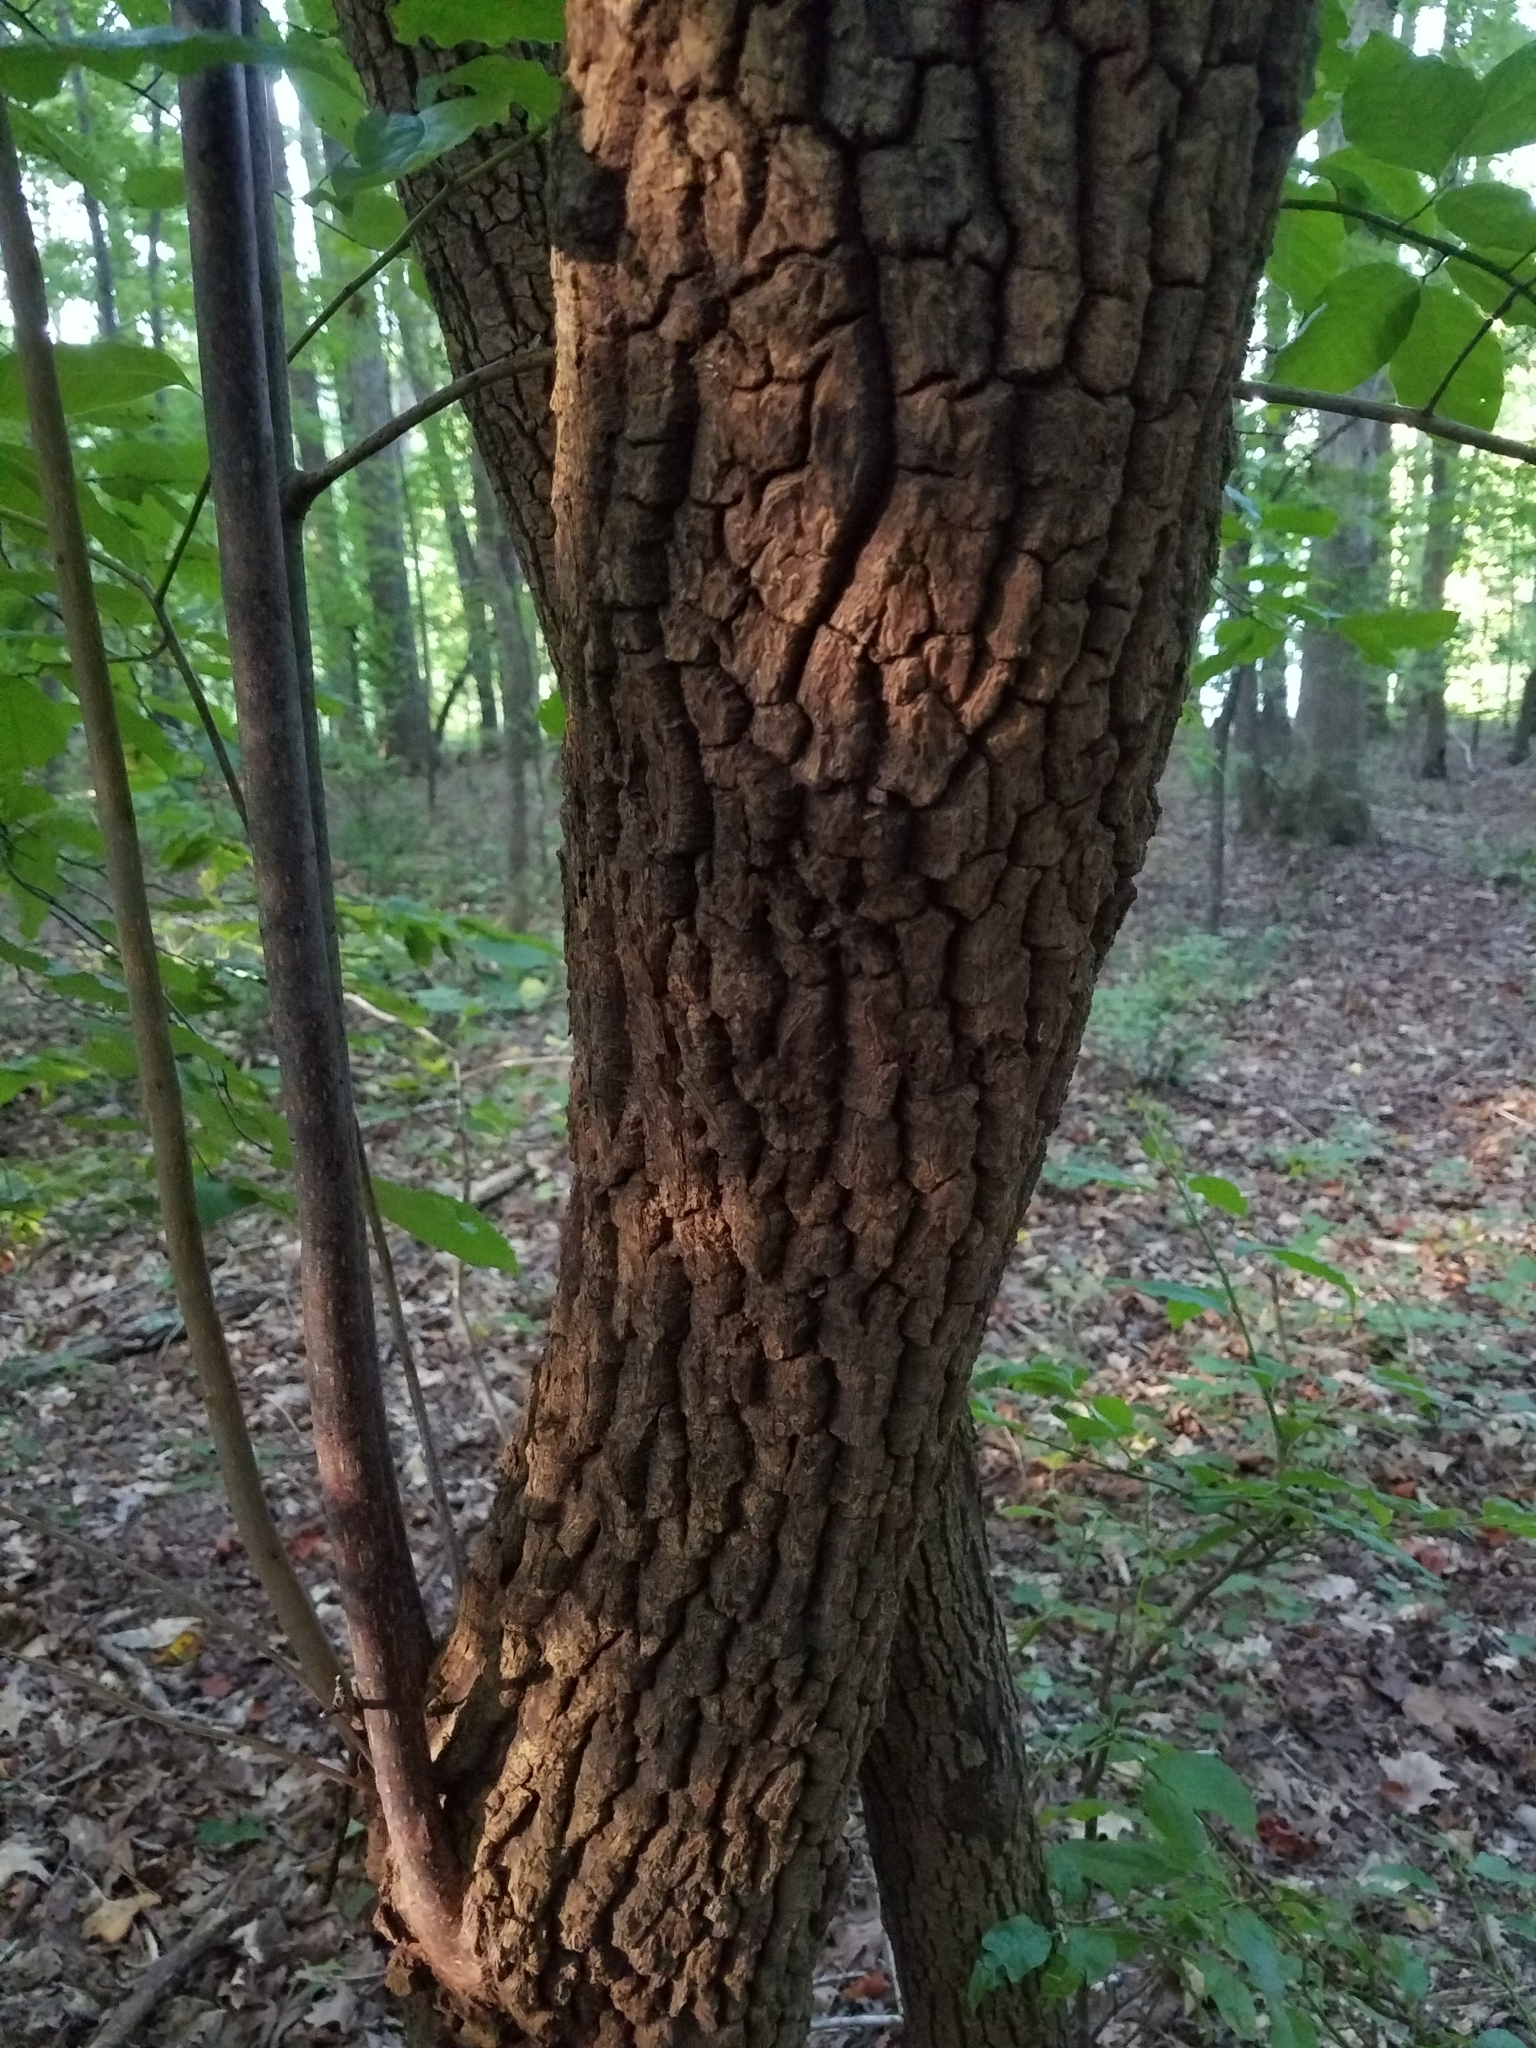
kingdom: Plantae
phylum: Tracheophyta
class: Magnoliopsida
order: Ericales
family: Ericaceae
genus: Oxydendrum
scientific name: Oxydendrum arboreum
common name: Sourwood
